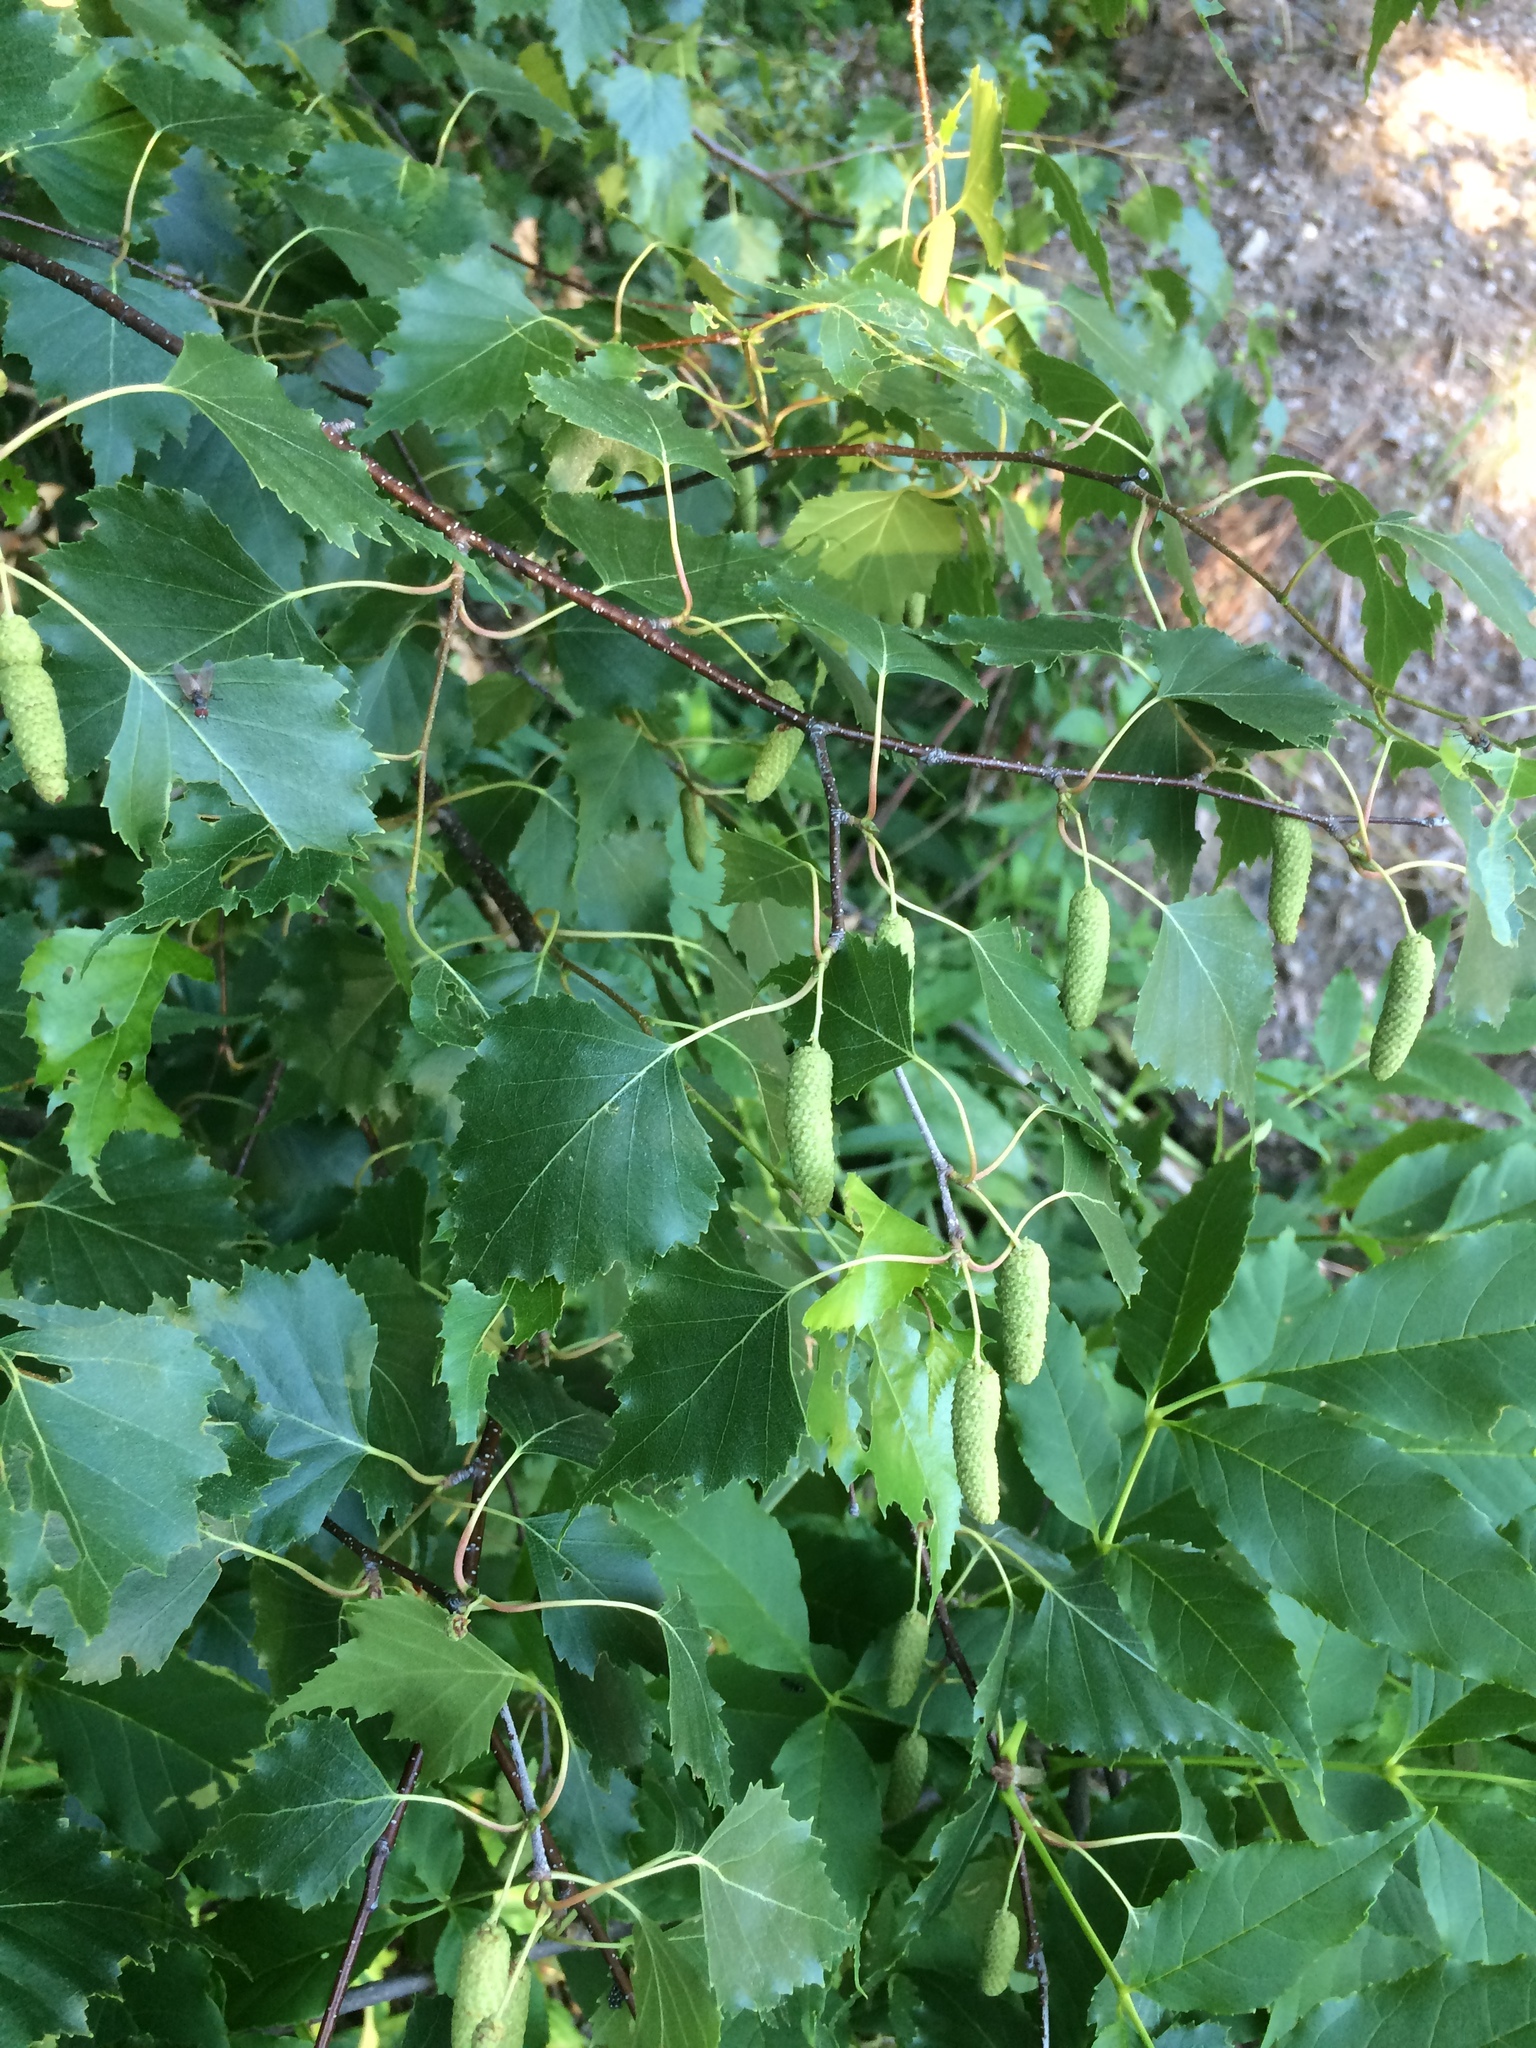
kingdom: Plantae
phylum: Tracheophyta
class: Magnoliopsida
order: Fagales
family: Betulaceae
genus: Betula
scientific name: Betula populifolia
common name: Fire birch
